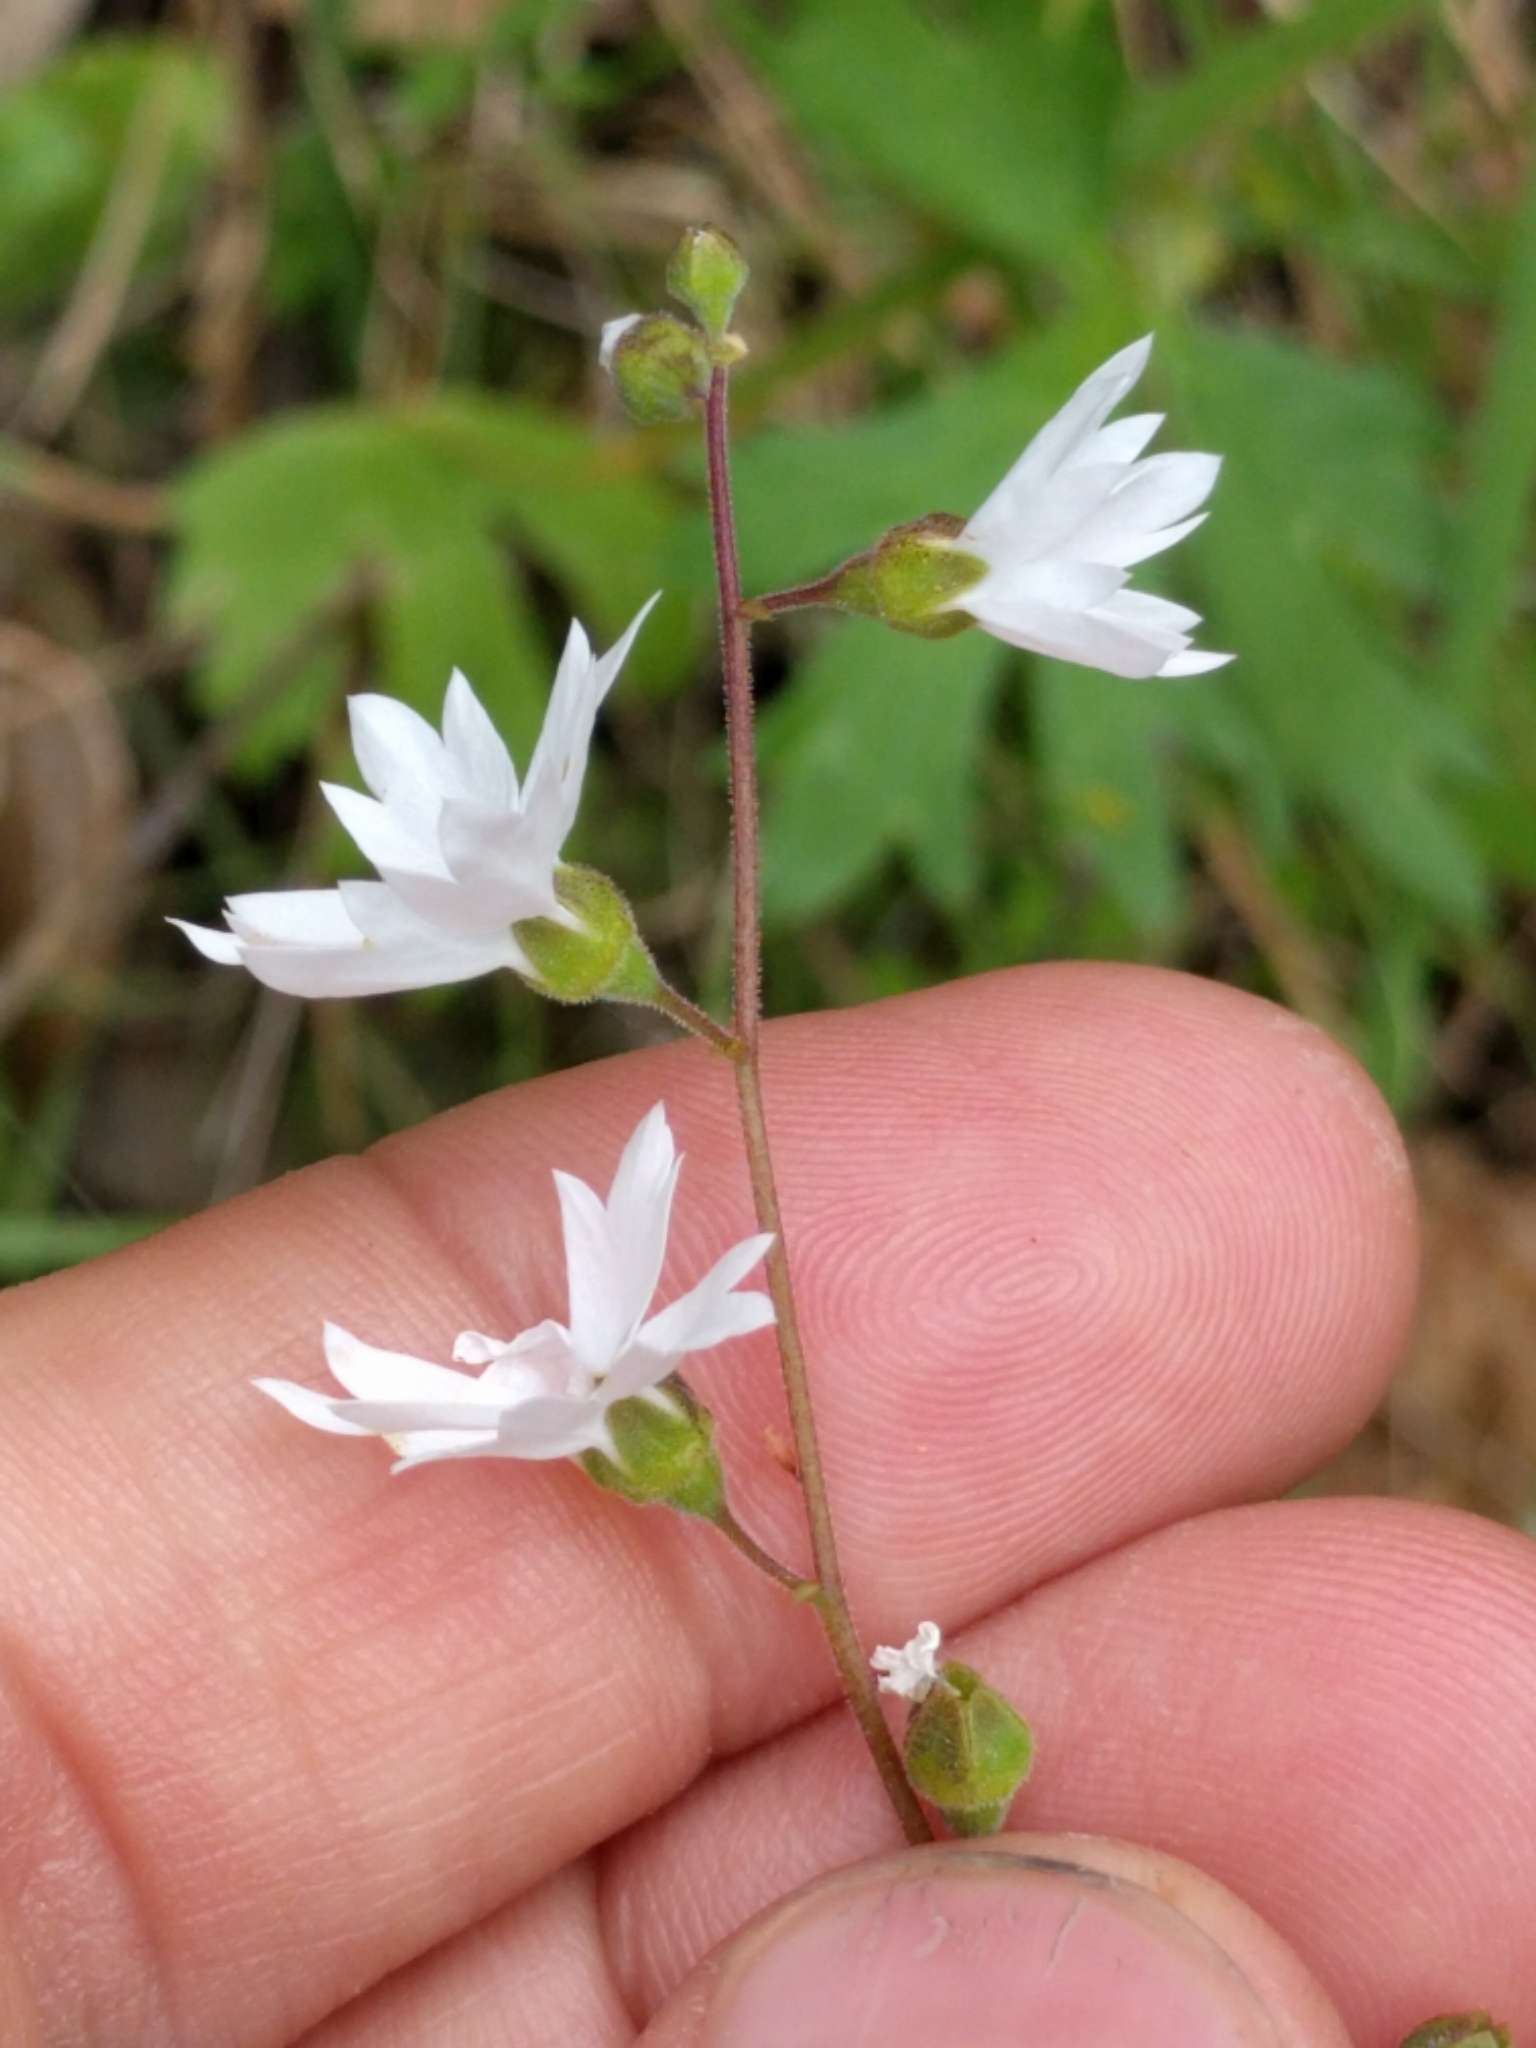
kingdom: Plantae
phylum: Tracheophyta
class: Magnoliopsida
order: Saxifragales
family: Saxifragaceae
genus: Lithophragma
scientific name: Lithophragma affine
